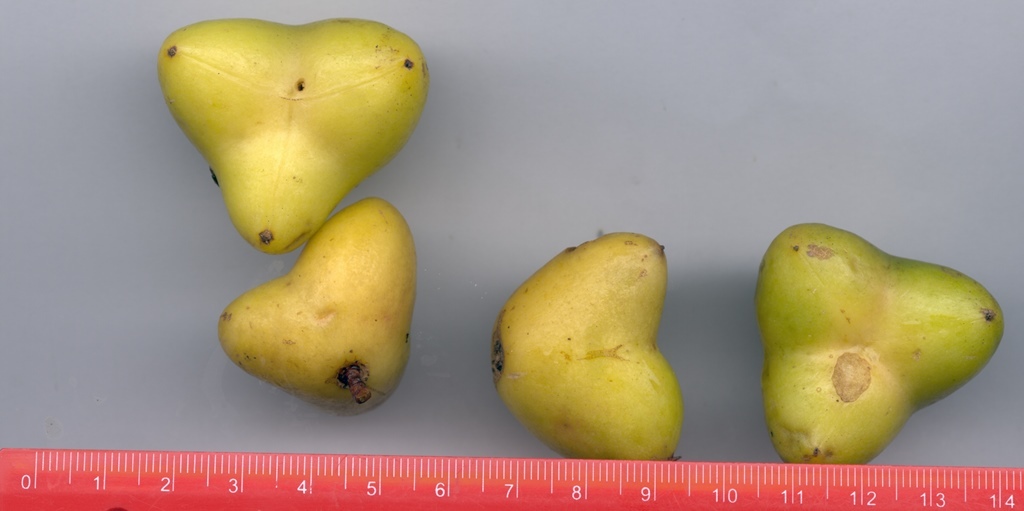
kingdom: Plantae
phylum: Tracheophyta
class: Magnoliopsida
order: Crossosomatales
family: Staphyleaceae
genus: Turpinia
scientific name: Turpinia tricornuta
